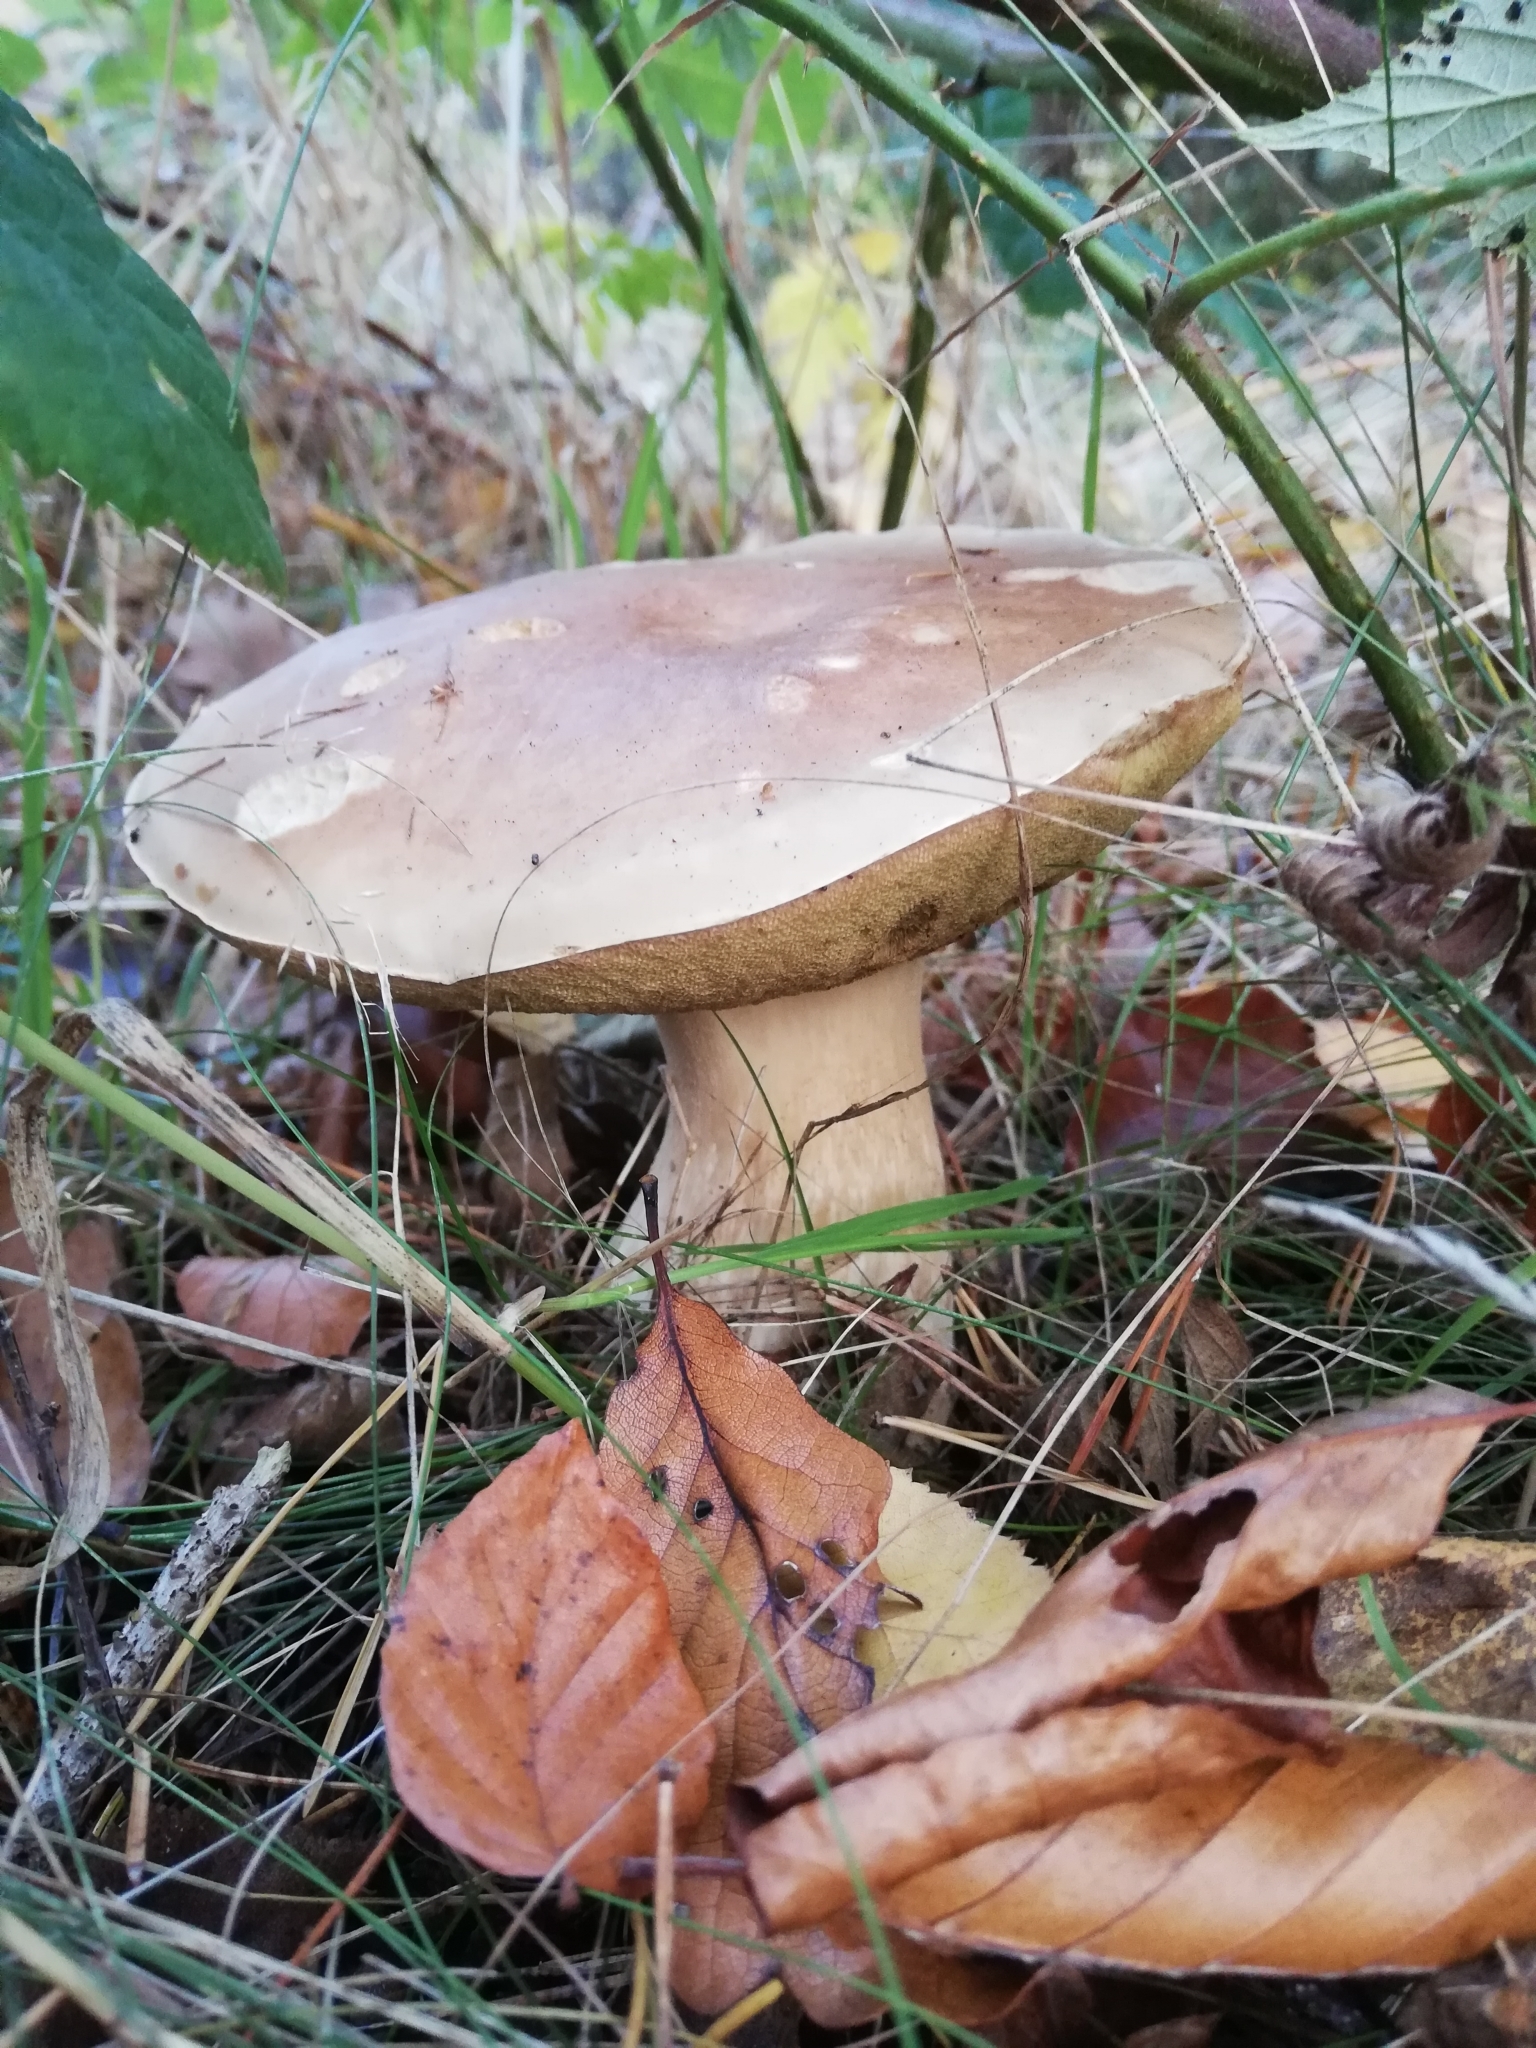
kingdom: Fungi
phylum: Basidiomycota
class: Agaricomycetes
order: Boletales
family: Boletaceae
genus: Boletus
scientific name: Boletus edulis
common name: Cep
